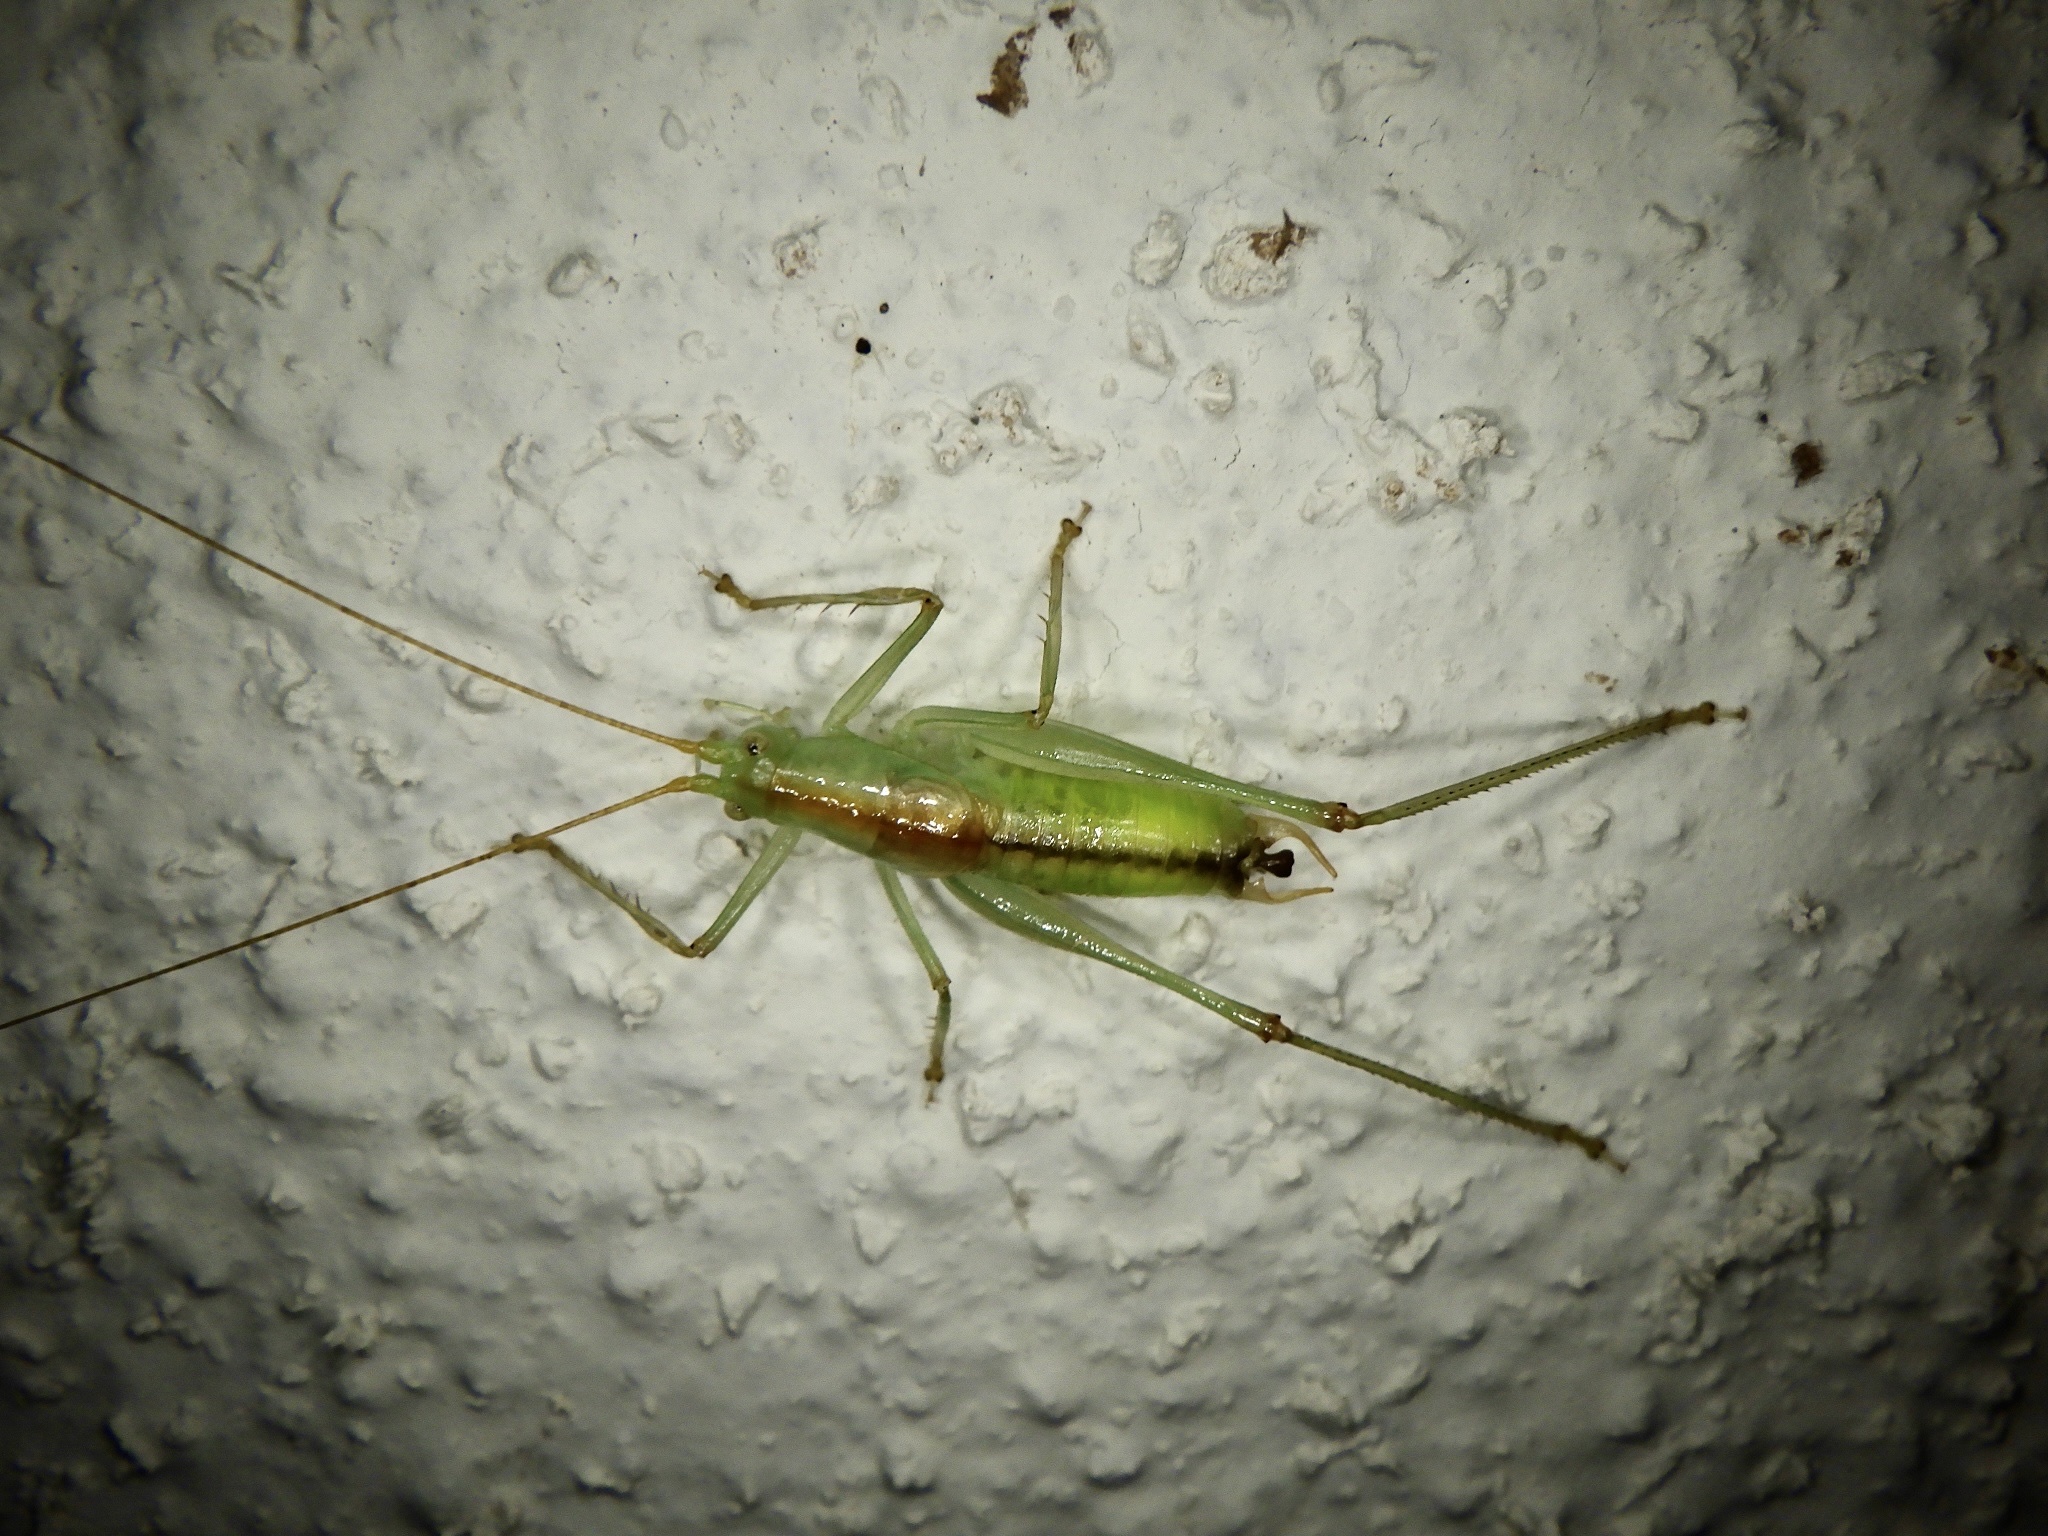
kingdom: Animalia
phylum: Arthropoda
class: Insecta
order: Orthoptera
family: Tettigoniidae
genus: Cosmetura
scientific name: Cosmetura fenestrata
